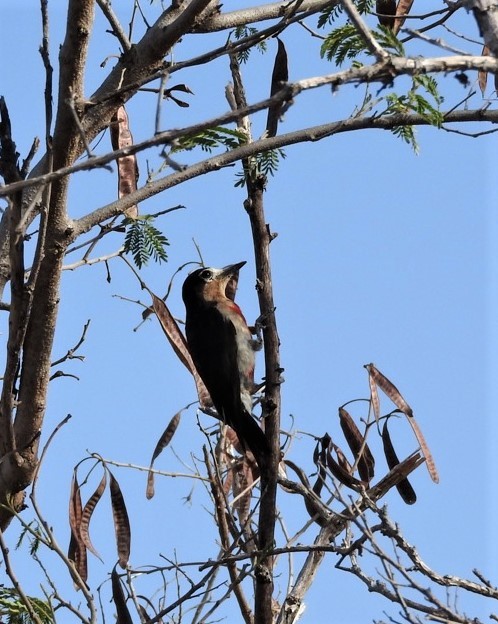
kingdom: Animalia
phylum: Chordata
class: Aves
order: Piciformes
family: Picidae
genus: Melanerpes
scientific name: Melanerpes portoricensis
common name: Puerto rican woodpecker
